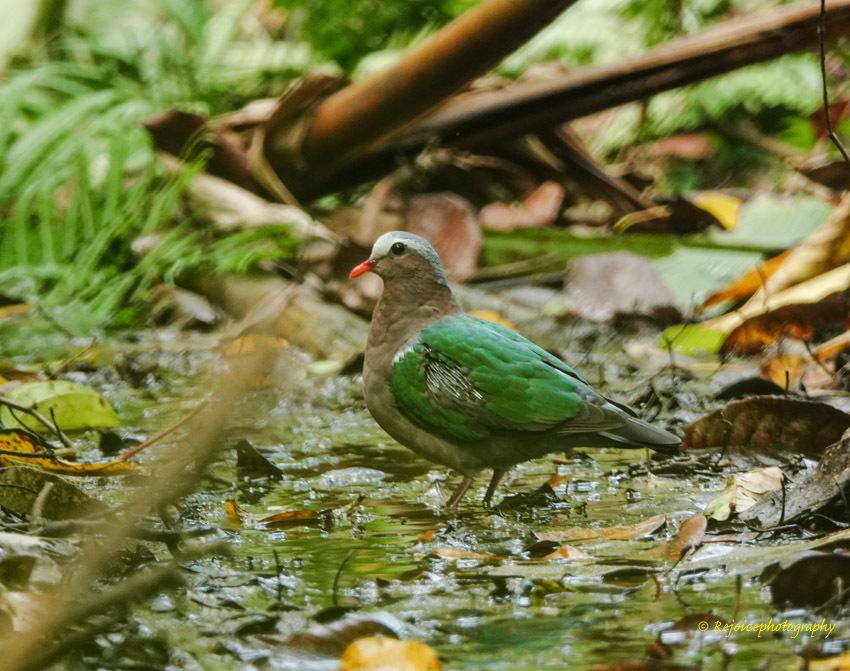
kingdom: Animalia
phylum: Chordata
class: Aves
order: Columbiformes
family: Columbidae
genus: Chalcophaps
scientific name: Chalcophaps indica
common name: Common emerald dove
